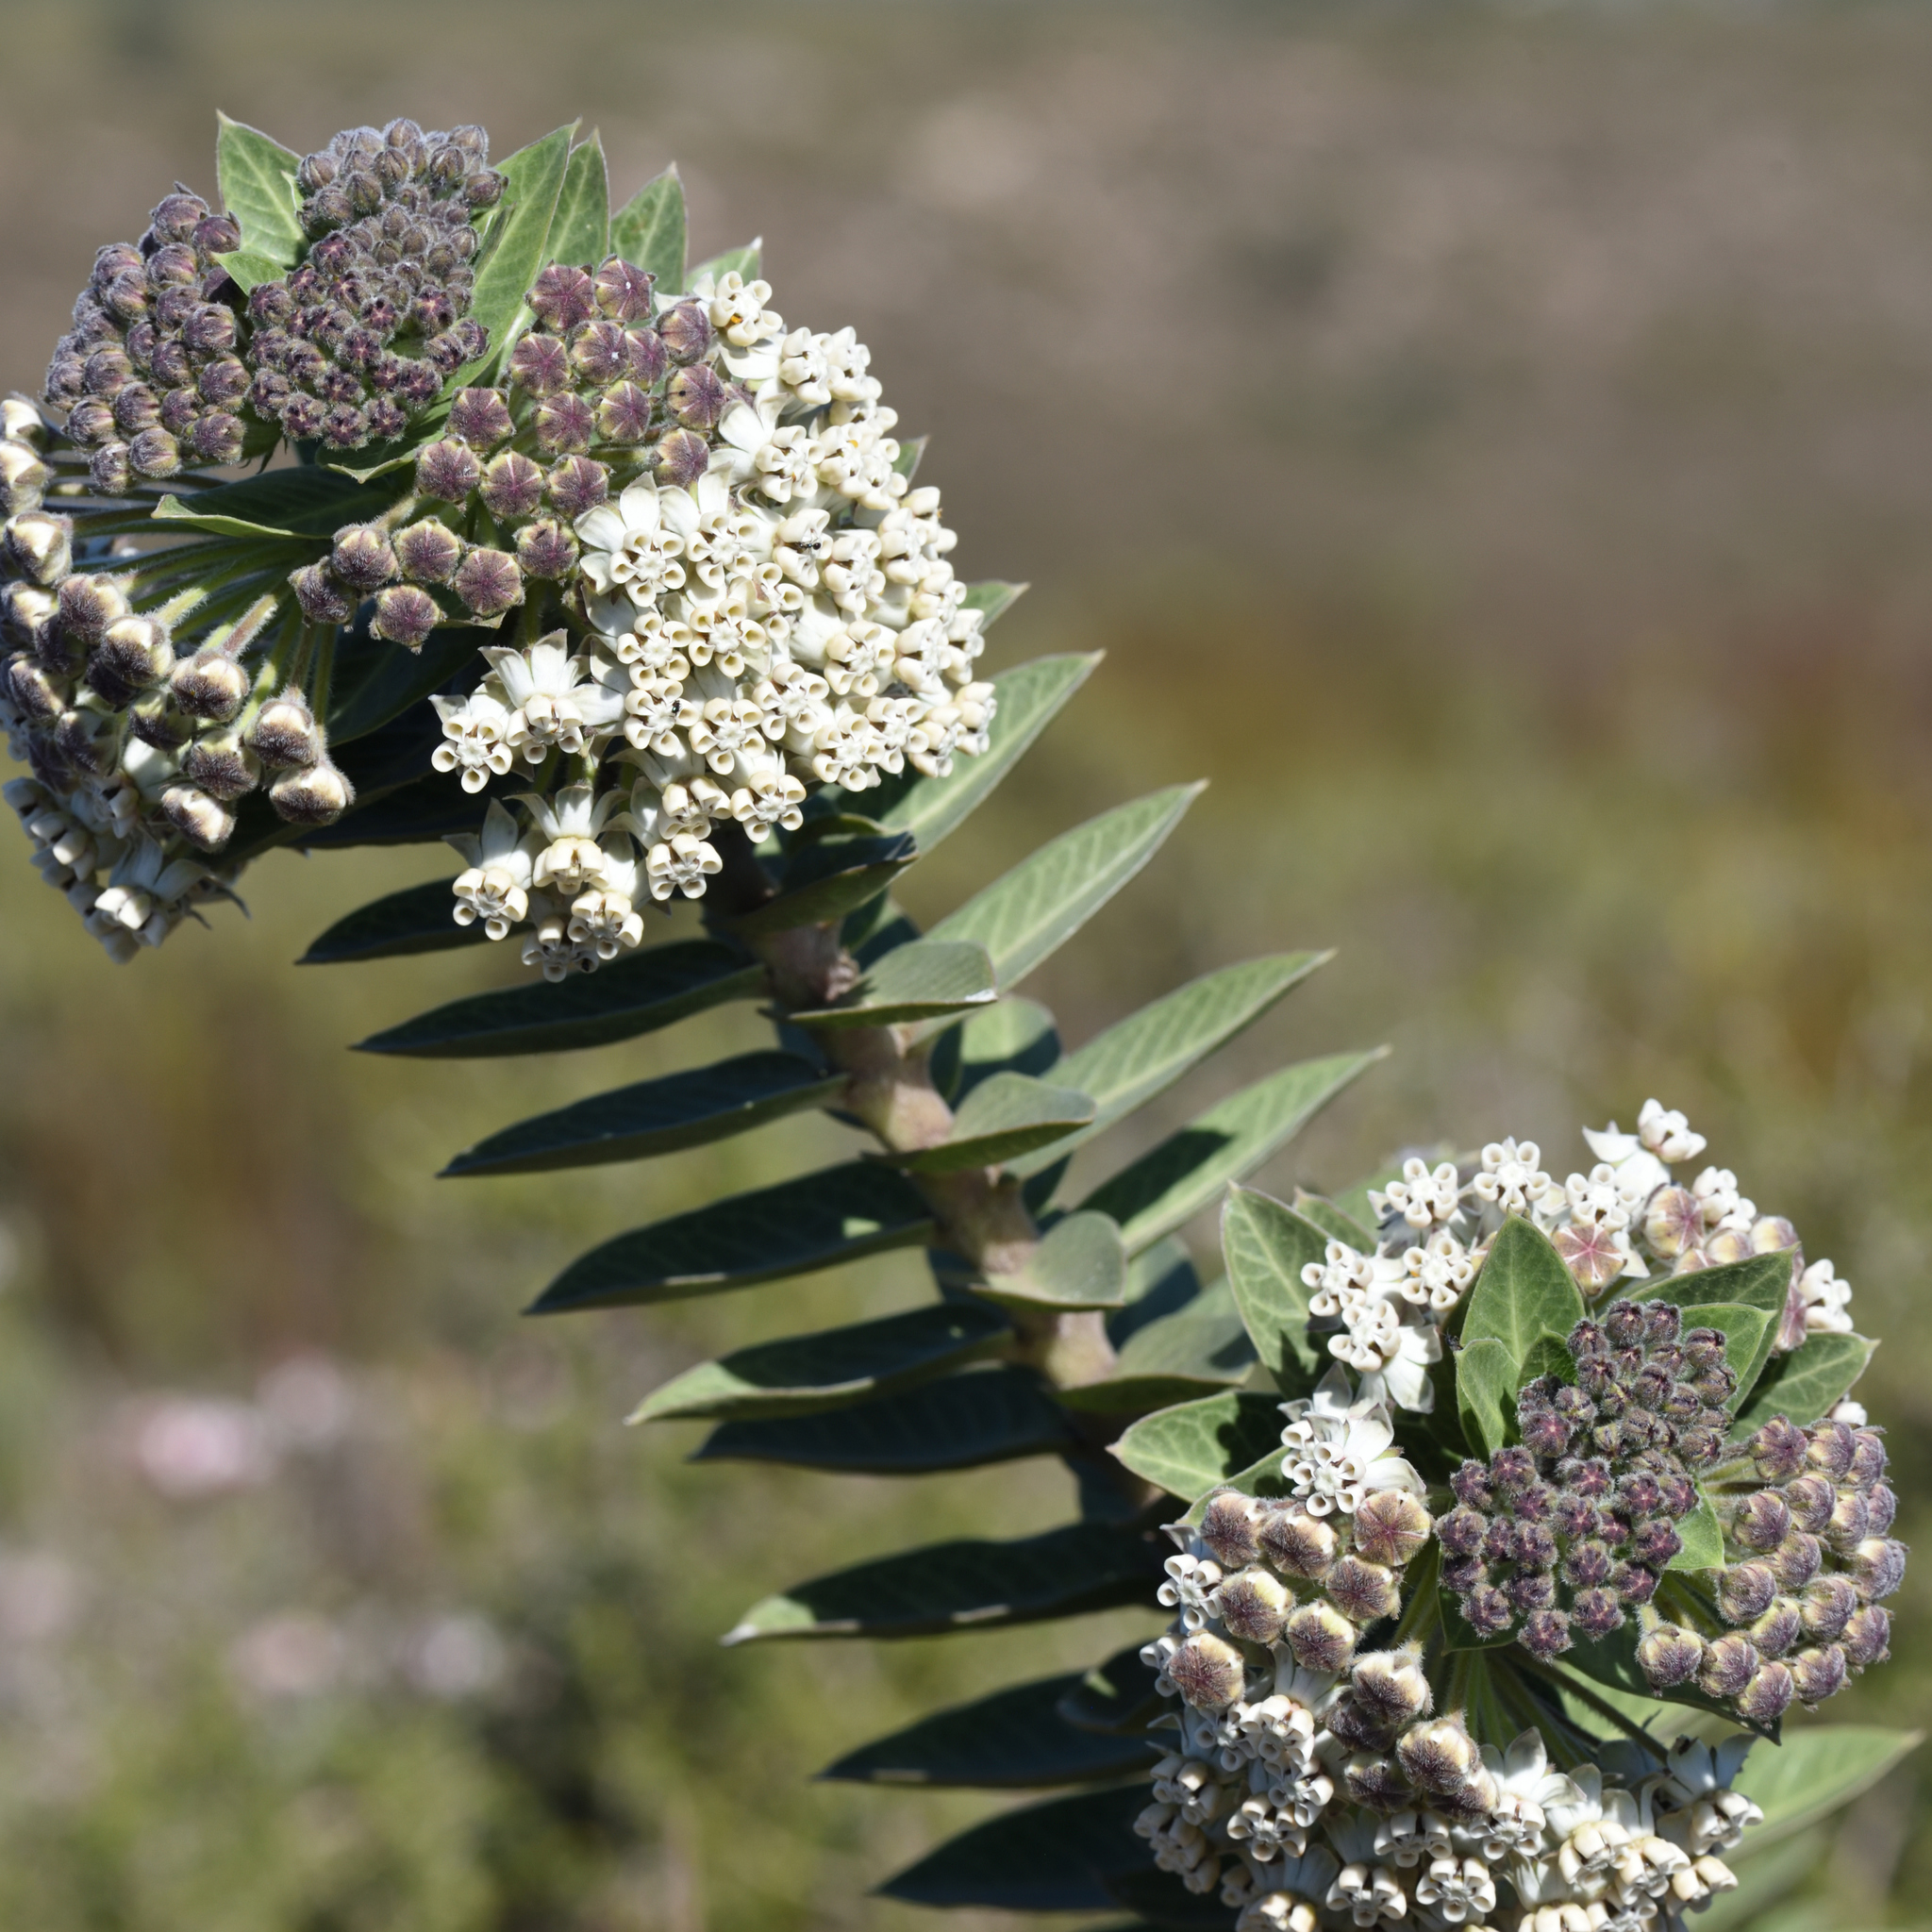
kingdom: Plantae
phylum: Tracheophyta
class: Magnoliopsida
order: Gentianales
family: Apocynaceae
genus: Gomphocarpus
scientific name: Gomphocarpus cancellatus
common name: Wild cotton
